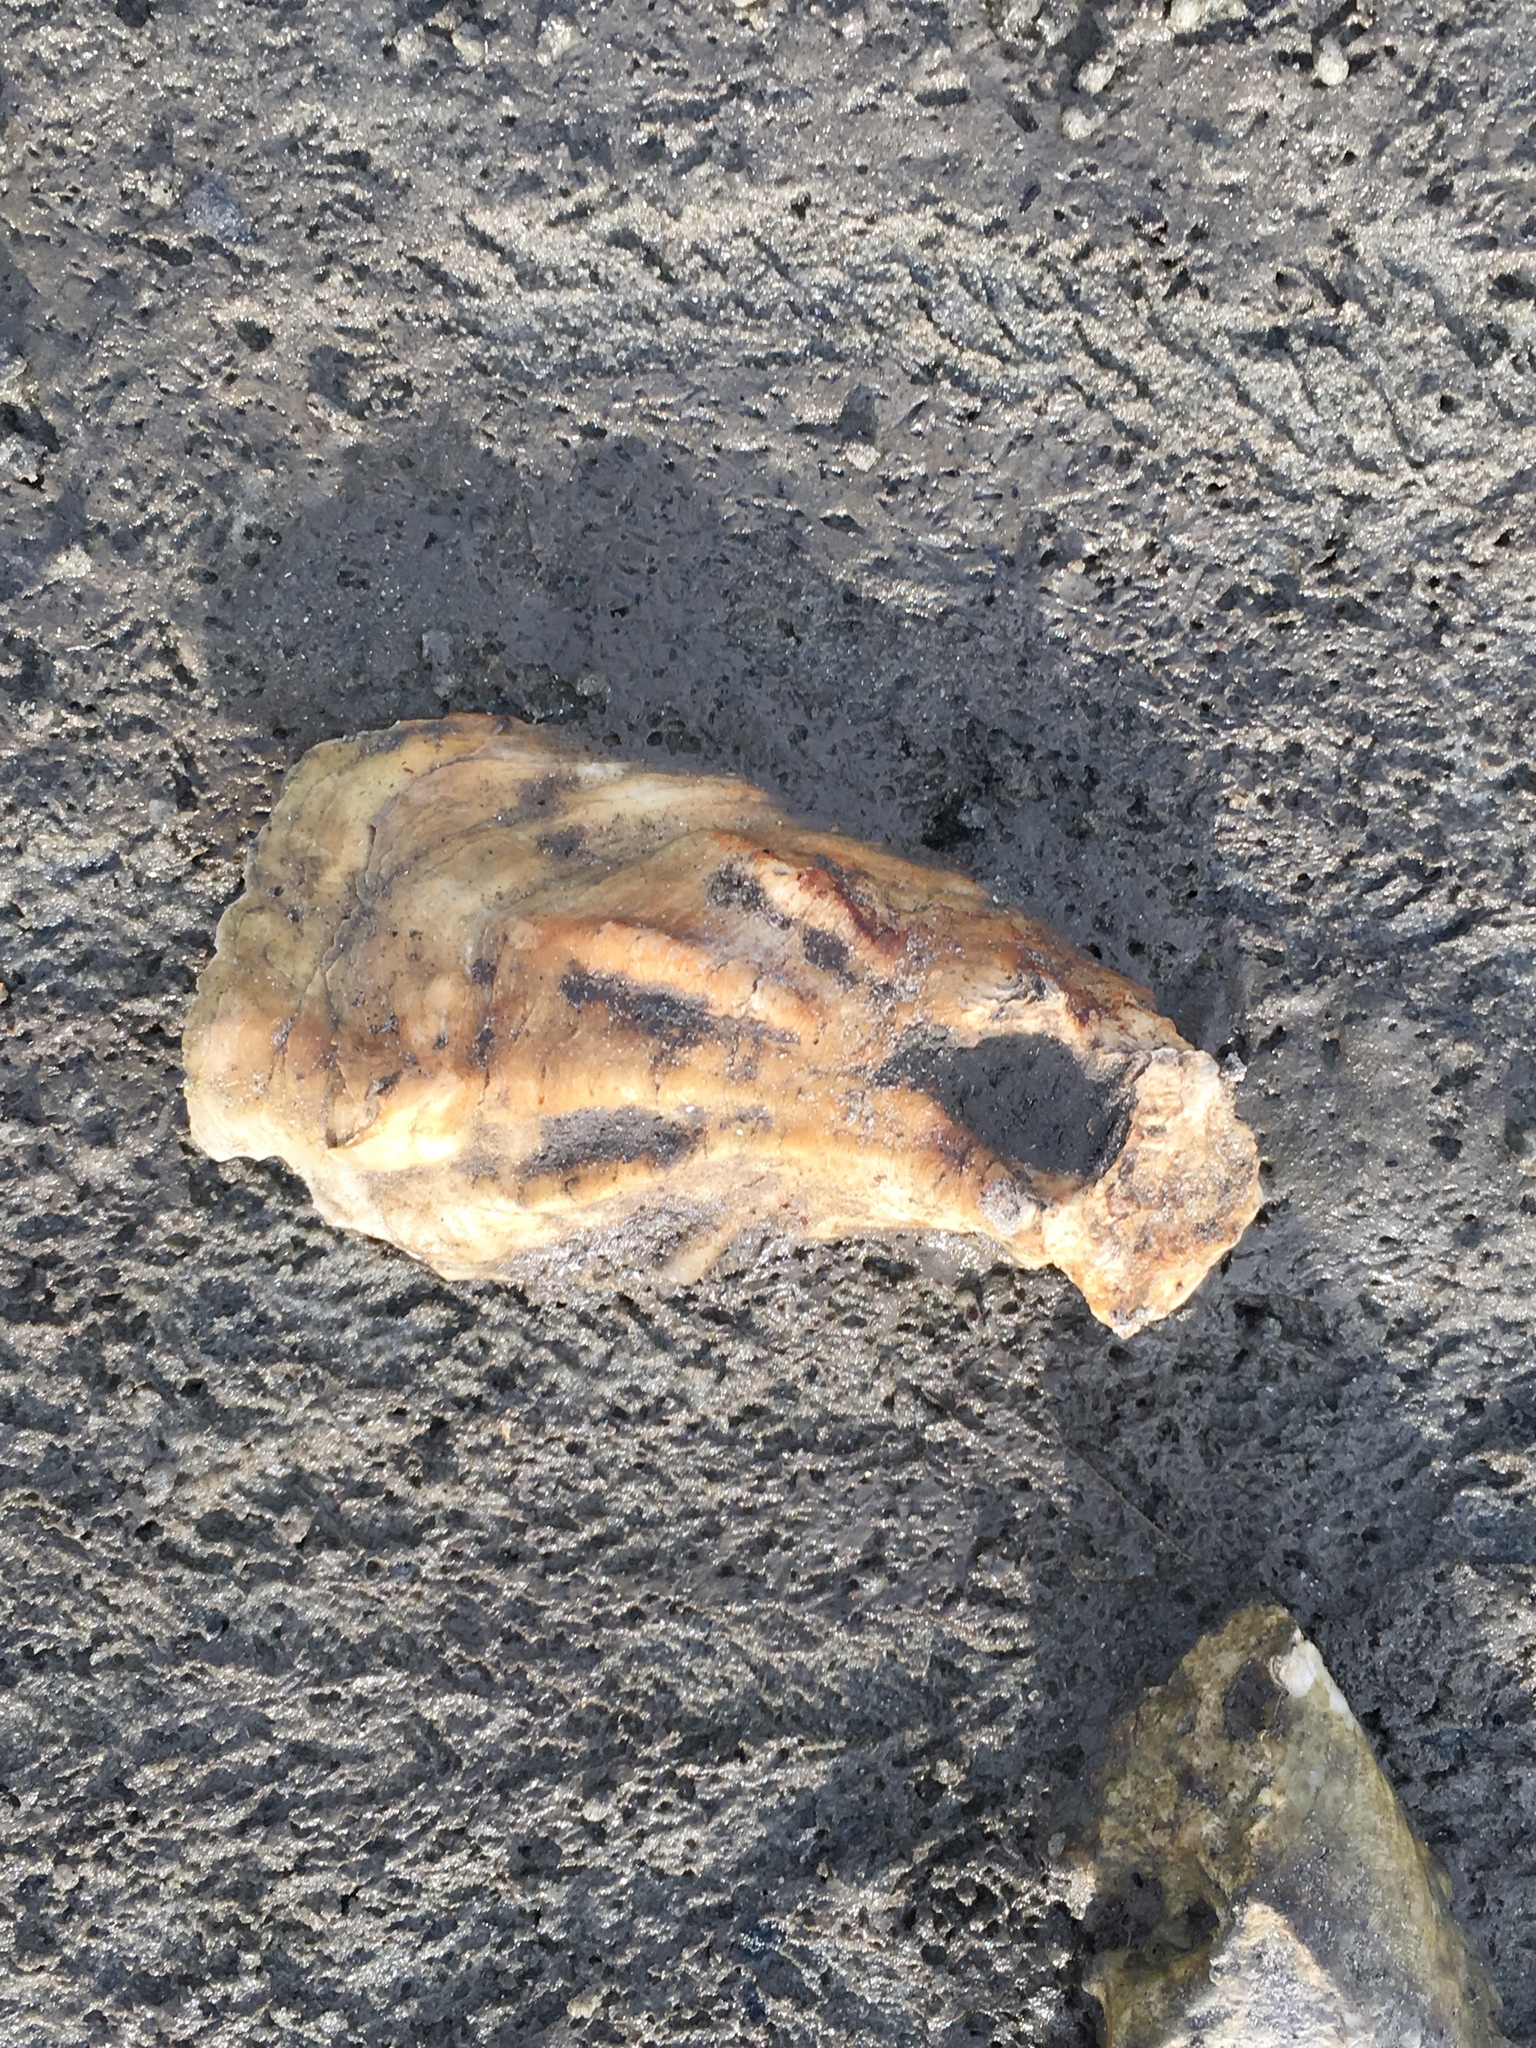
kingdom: Animalia
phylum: Mollusca
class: Bivalvia
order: Ostreida
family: Ostreidae
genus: Crassostrea
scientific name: Crassostrea virginica
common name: American oyster
